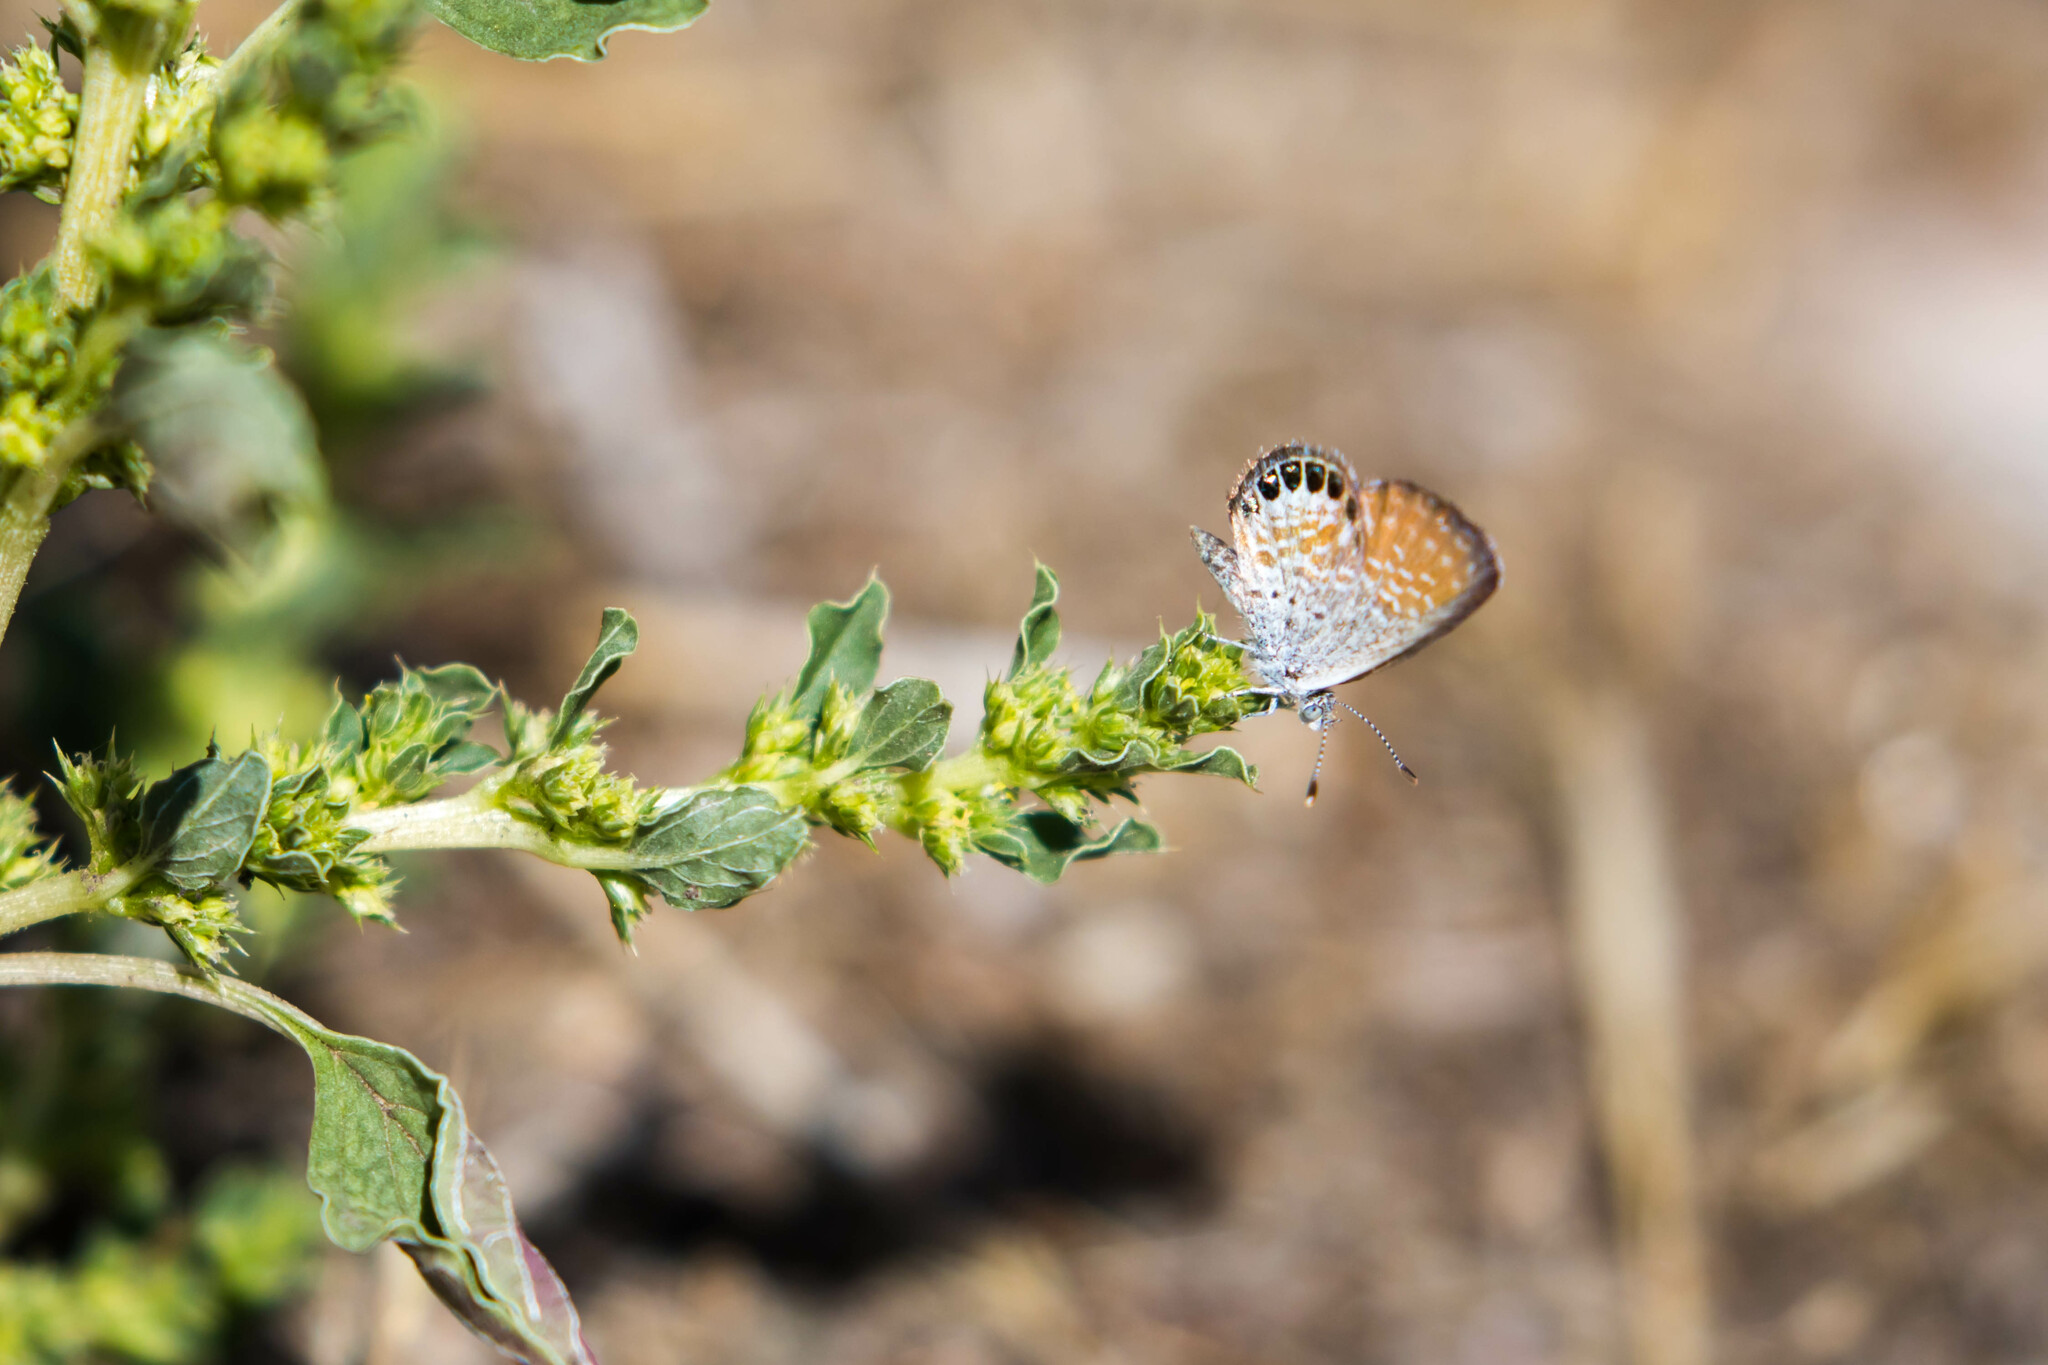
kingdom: Animalia
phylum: Arthropoda
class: Insecta
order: Lepidoptera
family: Lycaenidae
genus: Brephidium
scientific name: Brephidium exilis
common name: Pygmy blue
